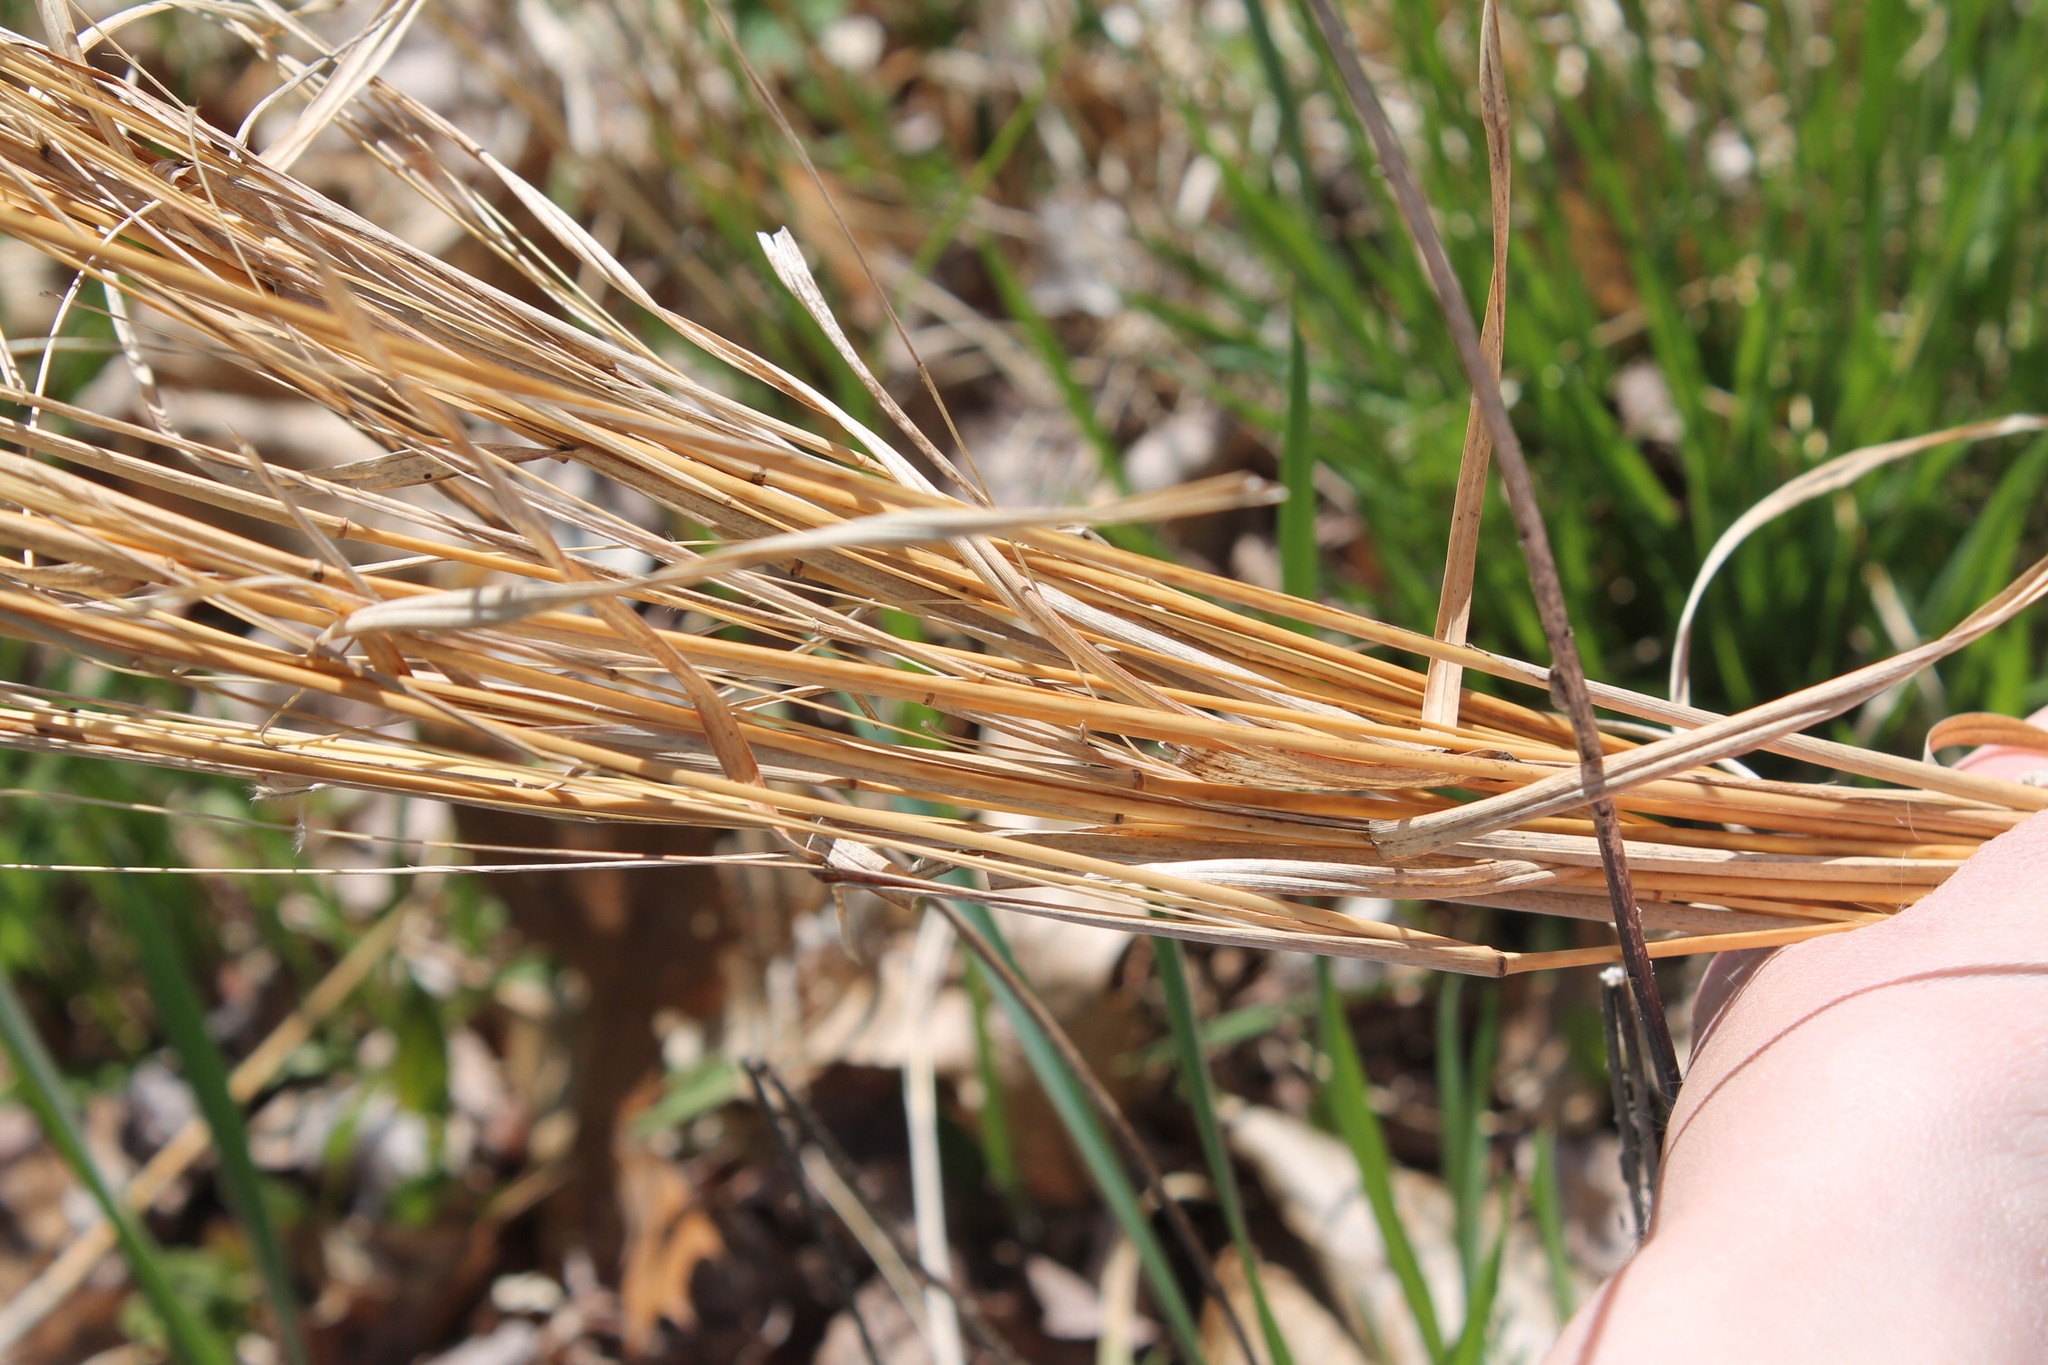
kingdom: Plantae
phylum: Tracheophyta
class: Liliopsida
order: Poales
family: Poaceae
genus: Andropogon
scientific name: Andropogon virginicus
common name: Broomsedge bluestem
